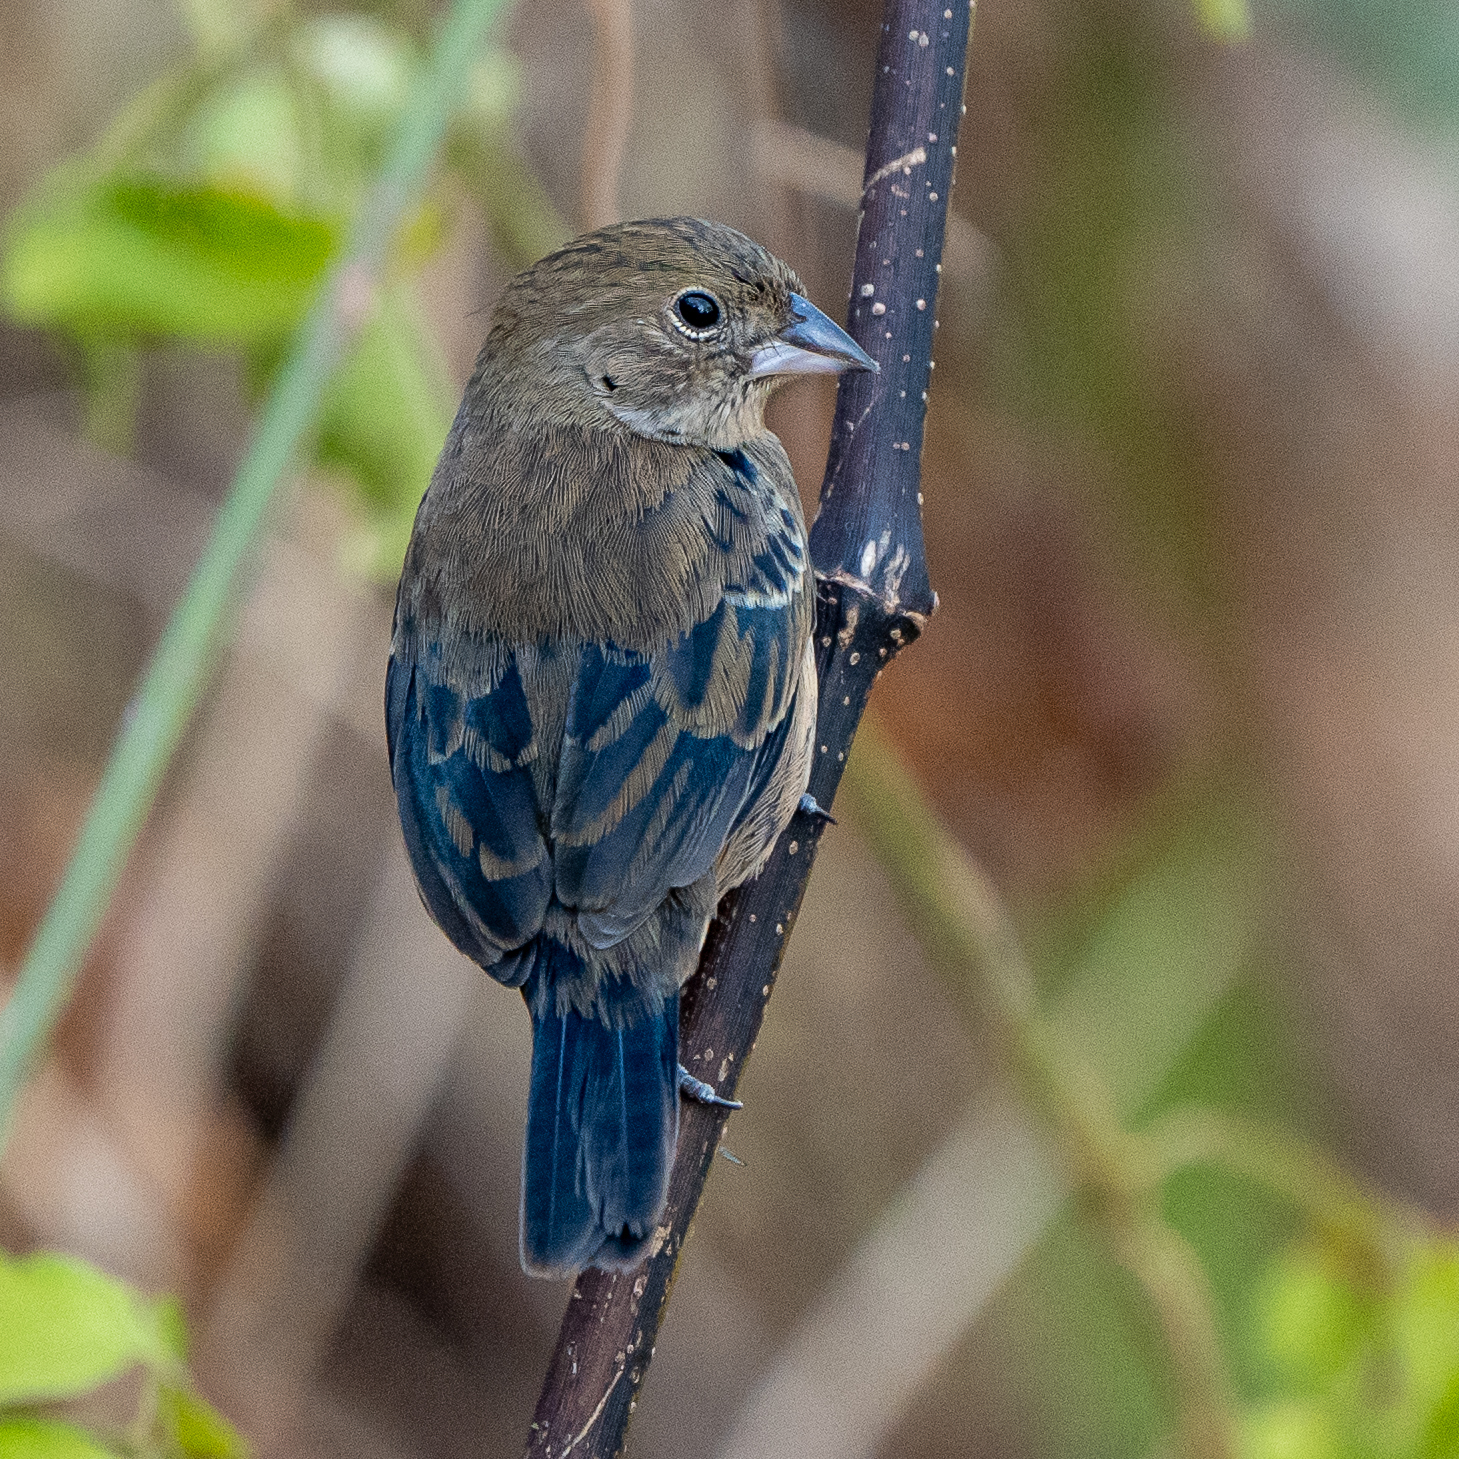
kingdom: Animalia
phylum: Chordata
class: Aves
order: Passeriformes
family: Thraupidae
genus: Volatinia
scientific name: Volatinia jacarina
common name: Blue-black grassquit
